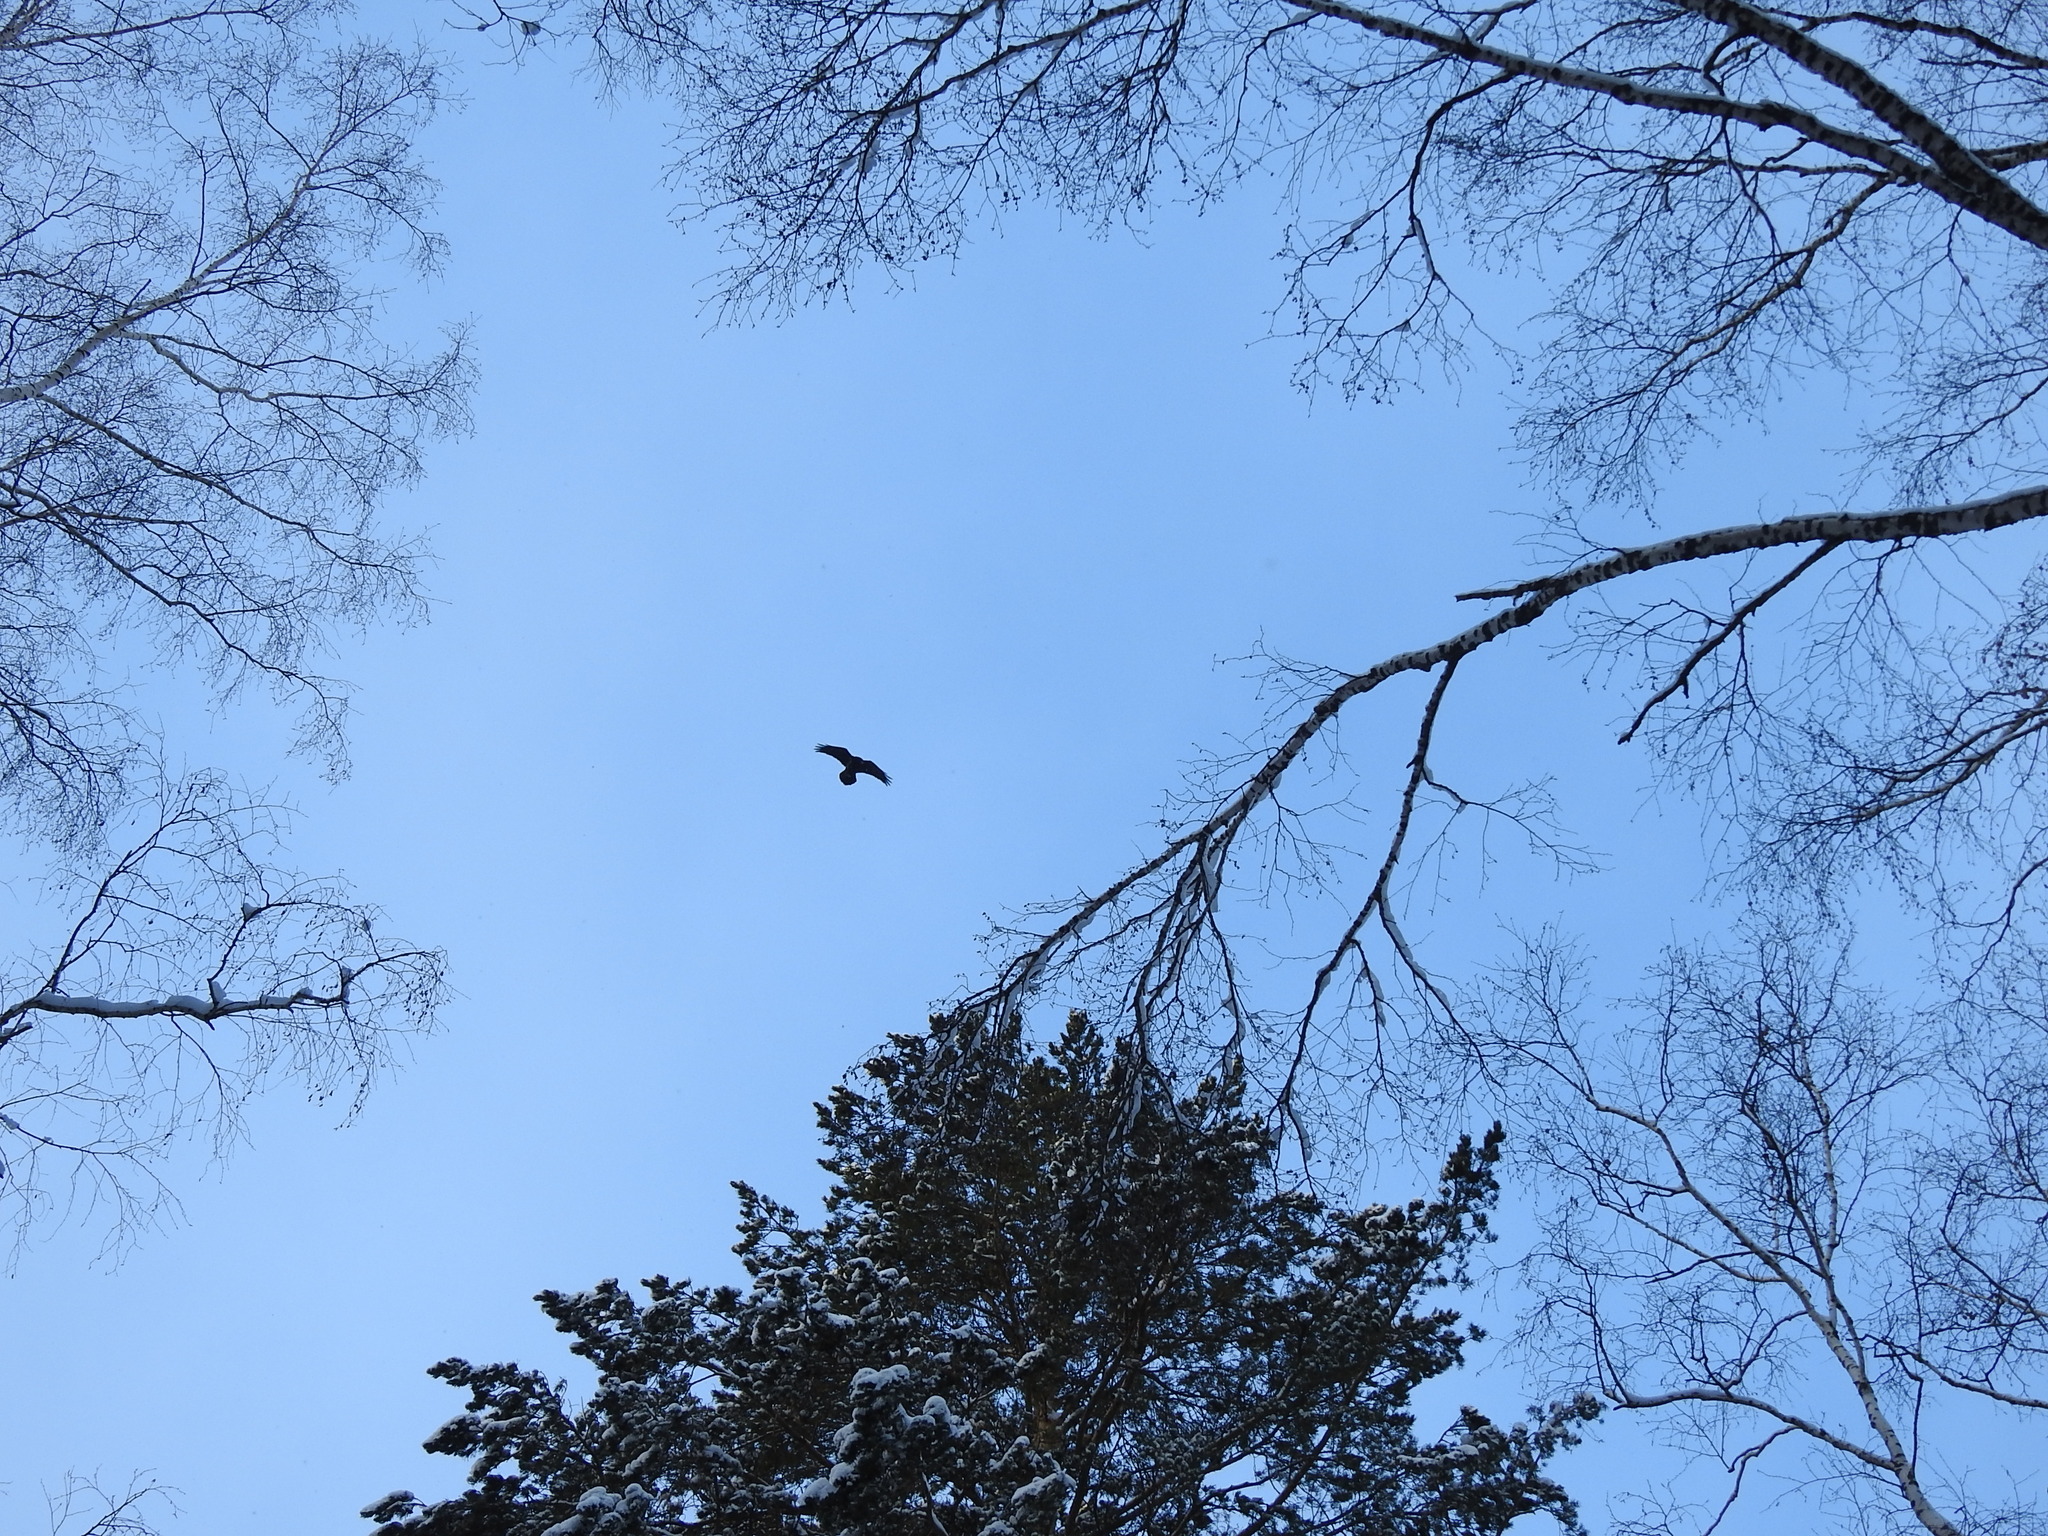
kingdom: Animalia
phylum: Chordata
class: Aves
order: Passeriformes
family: Corvidae
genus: Corvus
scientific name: Corvus corax
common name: Common raven
